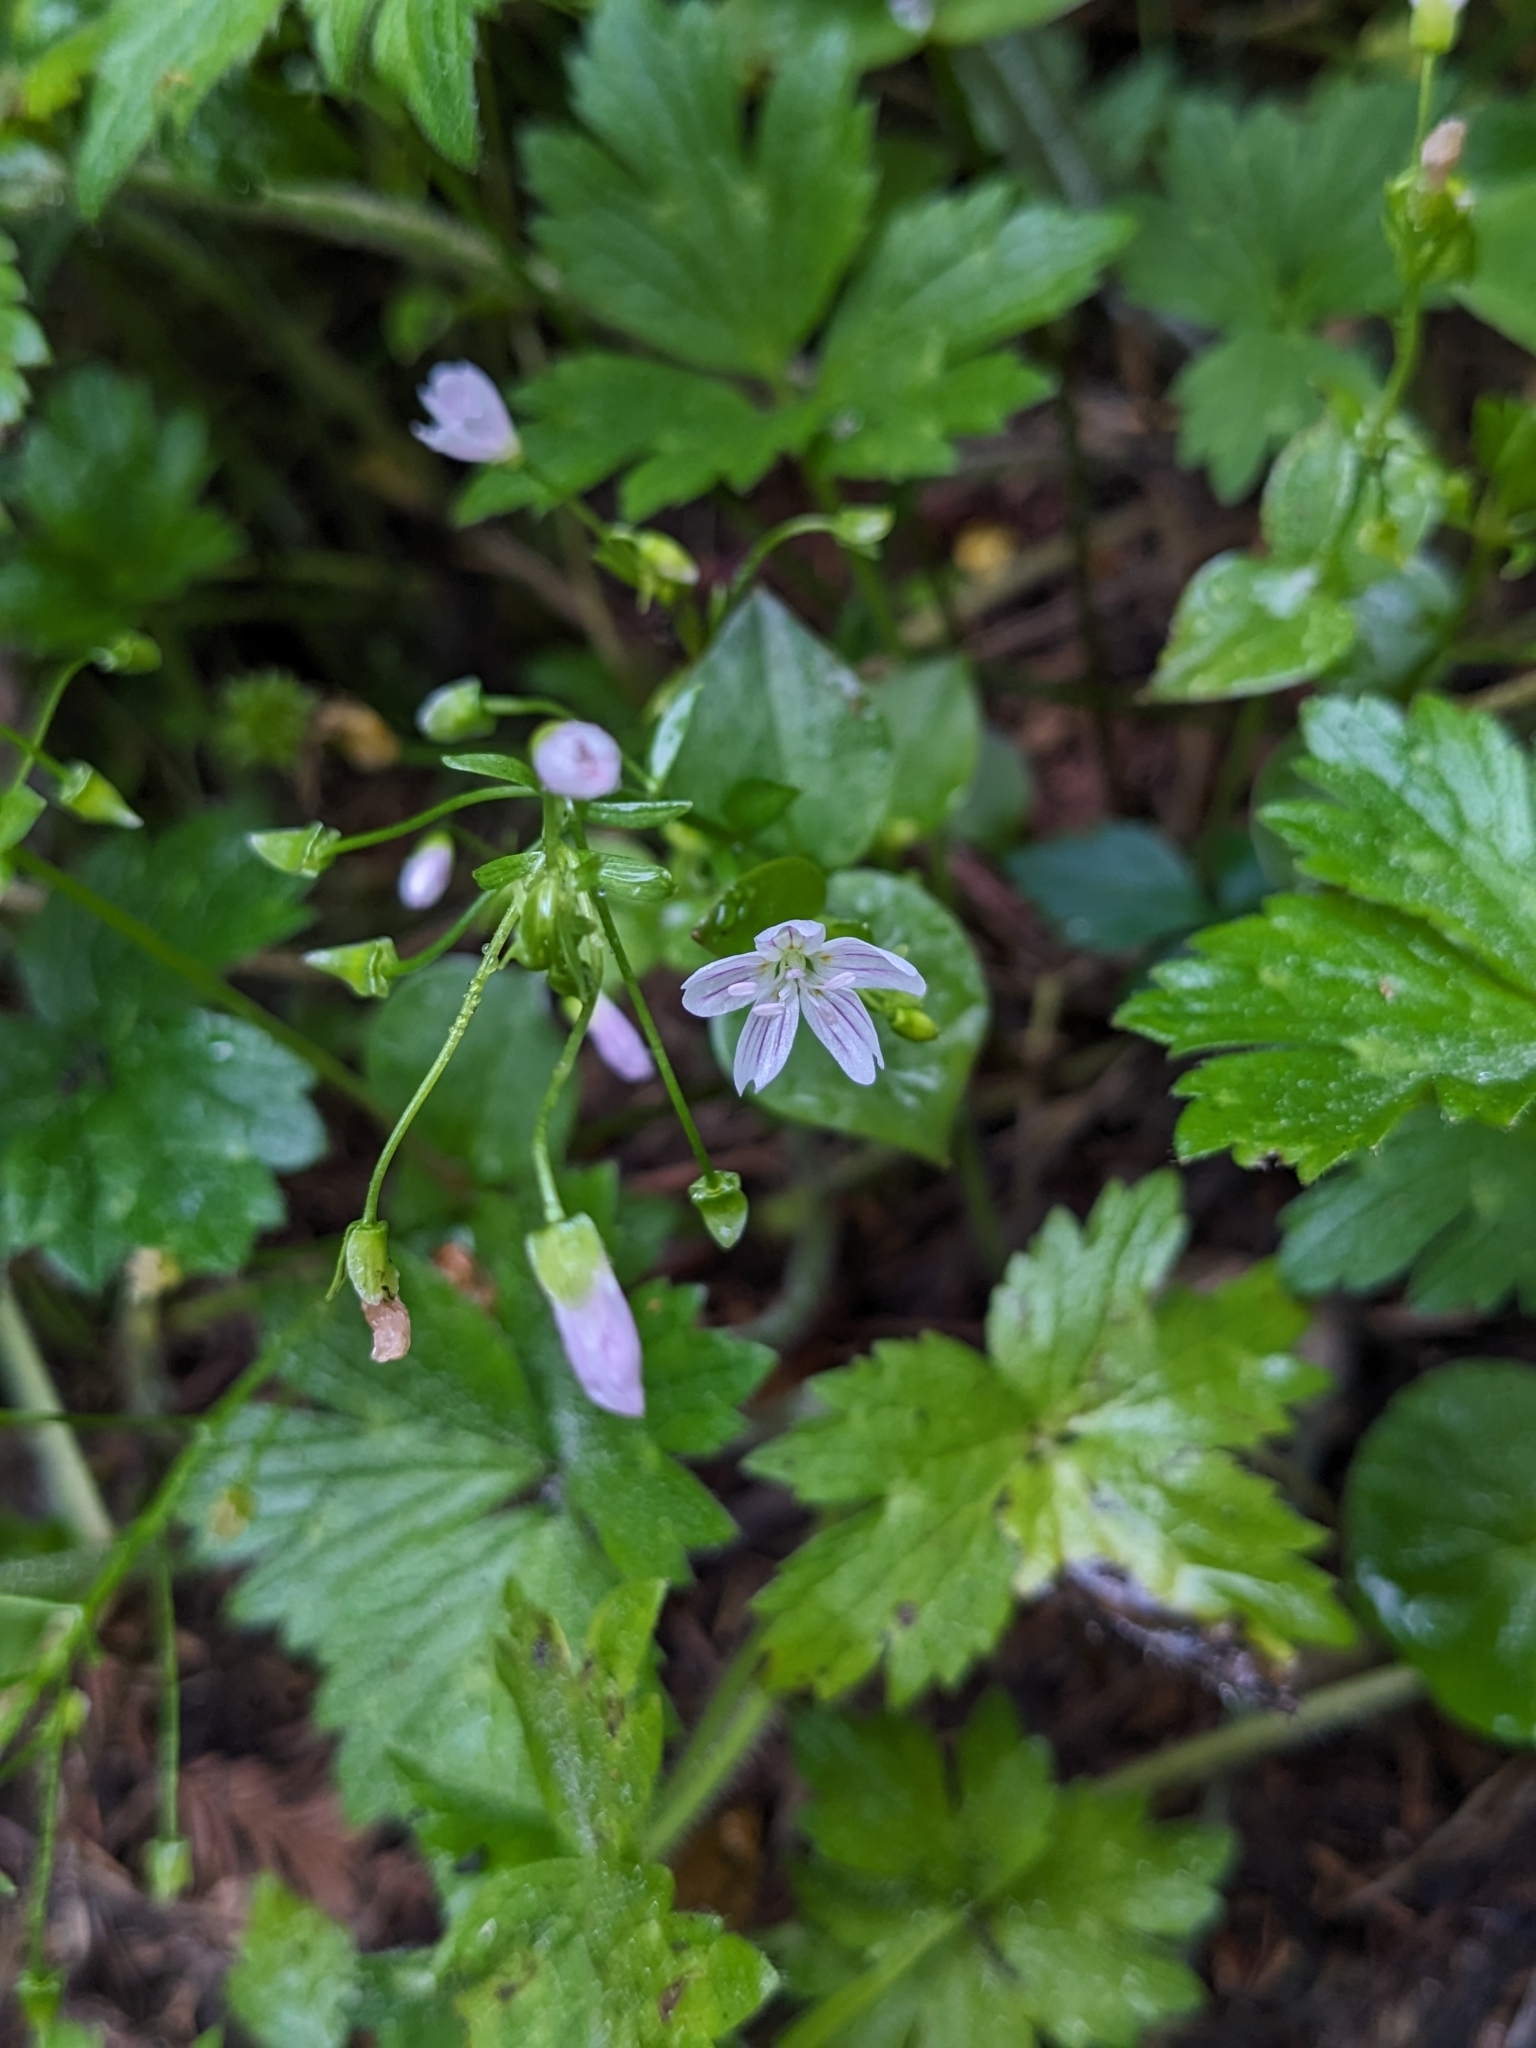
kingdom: Plantae
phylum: Tracheophyta
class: Magnoliopsida
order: Caryophyllales
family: Montiaceae
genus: Claytonia
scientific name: Claytonia sibirica
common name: Pink purslane
